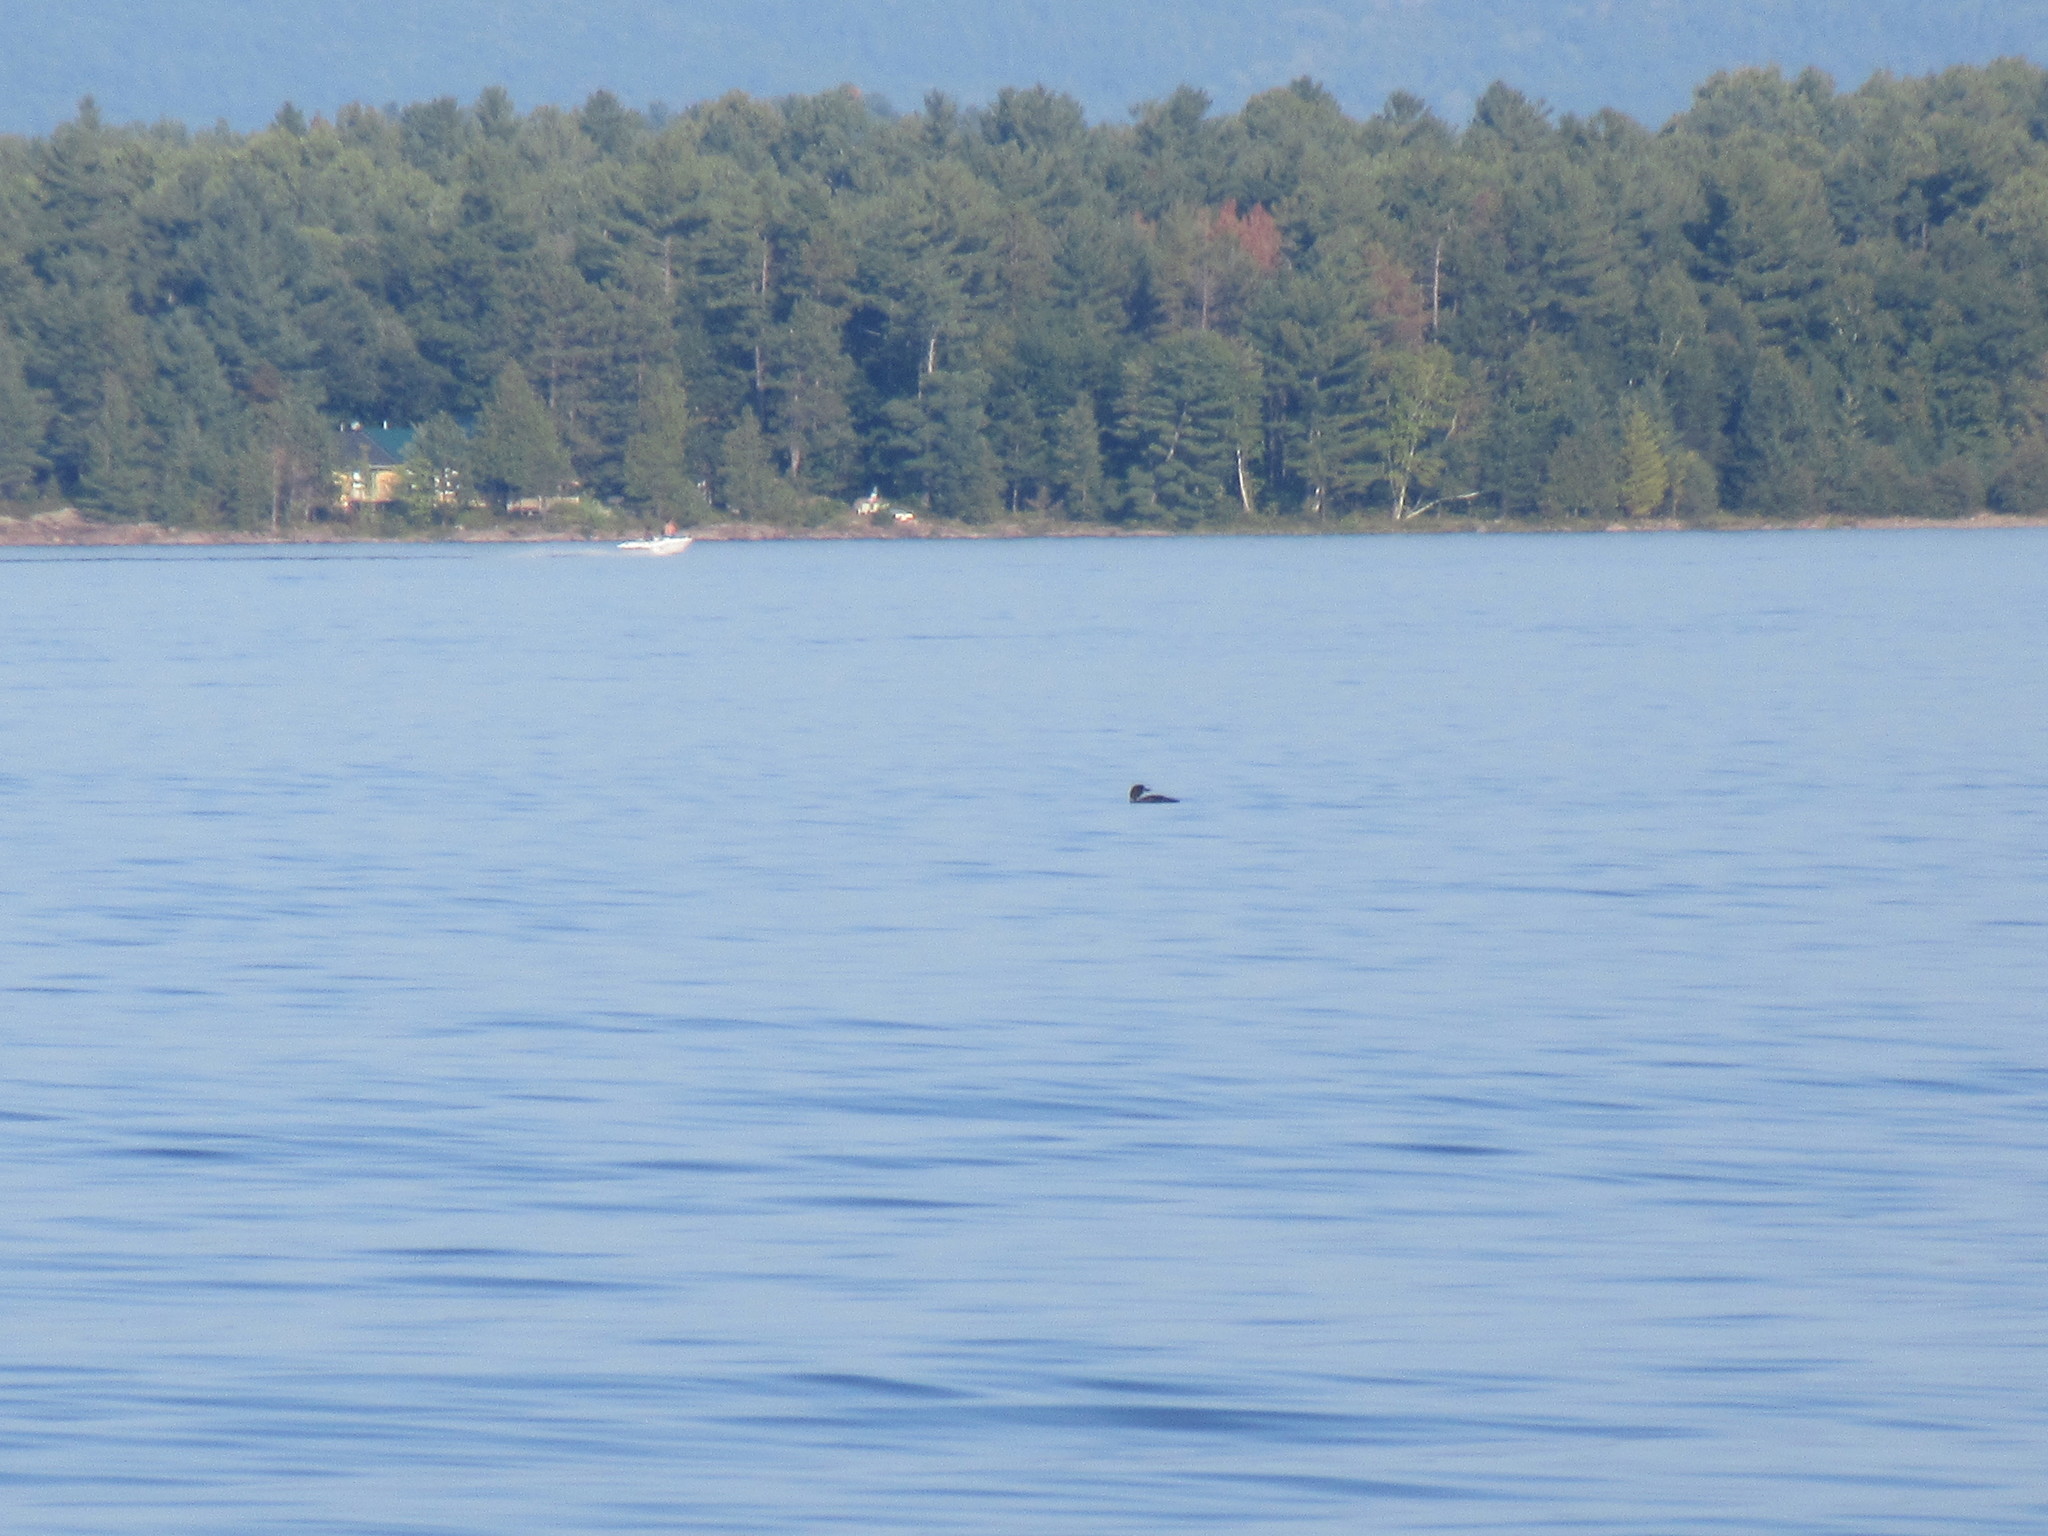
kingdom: Animalia
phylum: Chordata
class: Aves
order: Gaviiformes
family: Gaviidae
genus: Gavia
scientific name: Gavia immer
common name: Common loon
